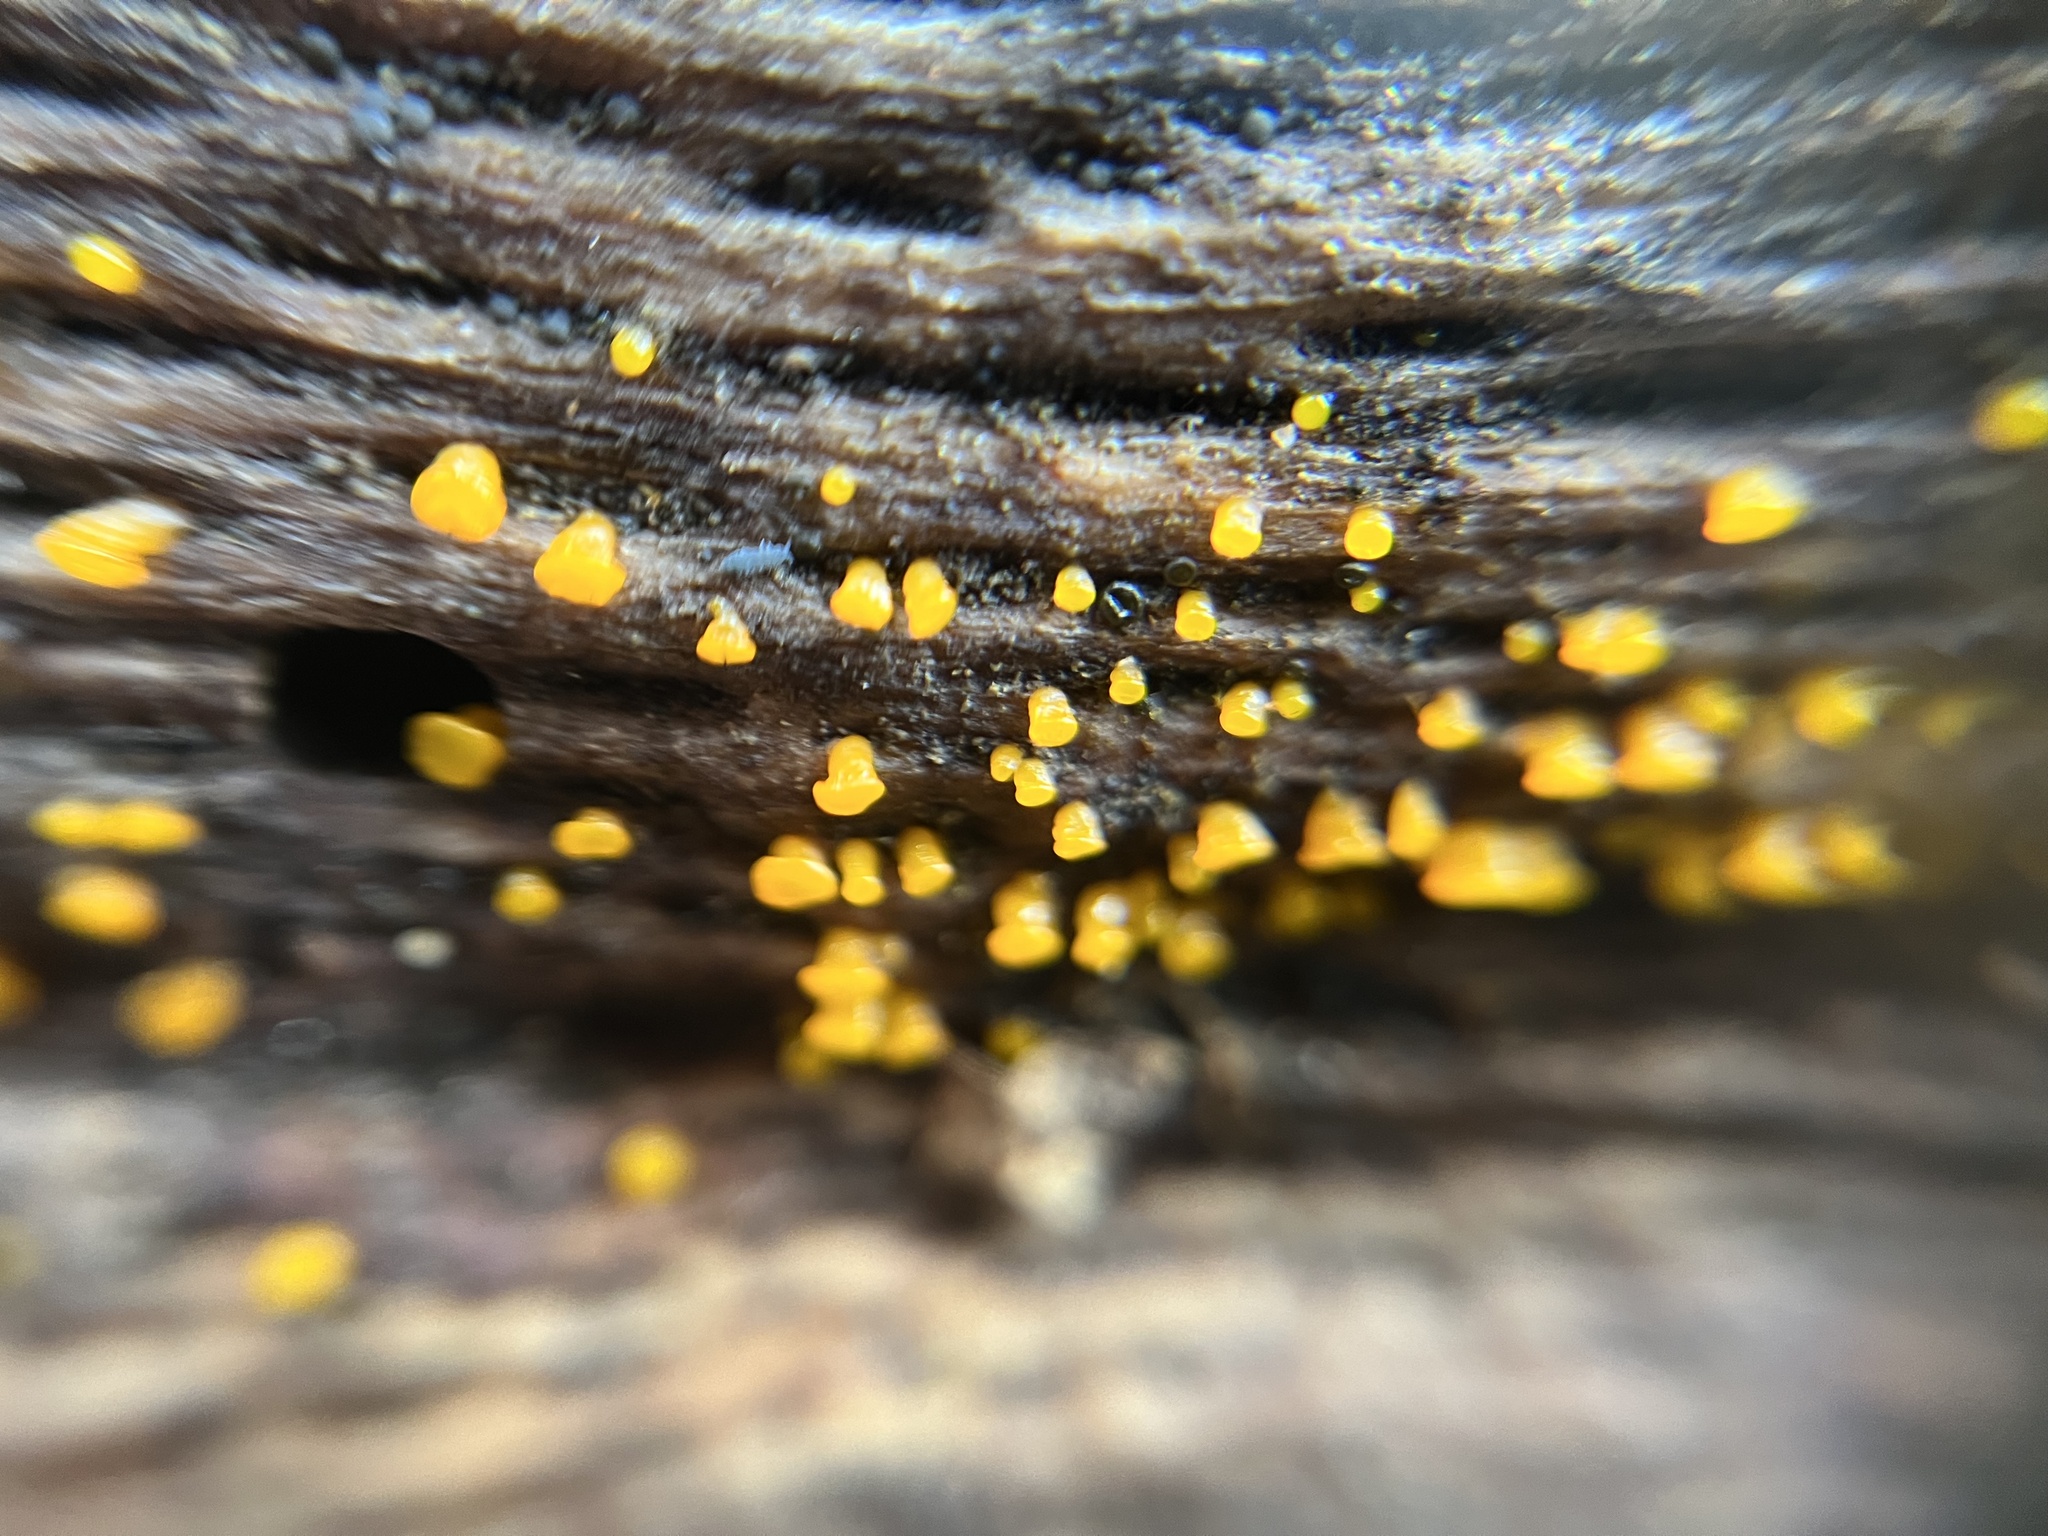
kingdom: Fungi
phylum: Basidiomycota
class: Dacrymycetes
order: Dacrymycetales
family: Dacrymycetaceae
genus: Dacrymyces
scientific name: Dacrymyces capitatus
